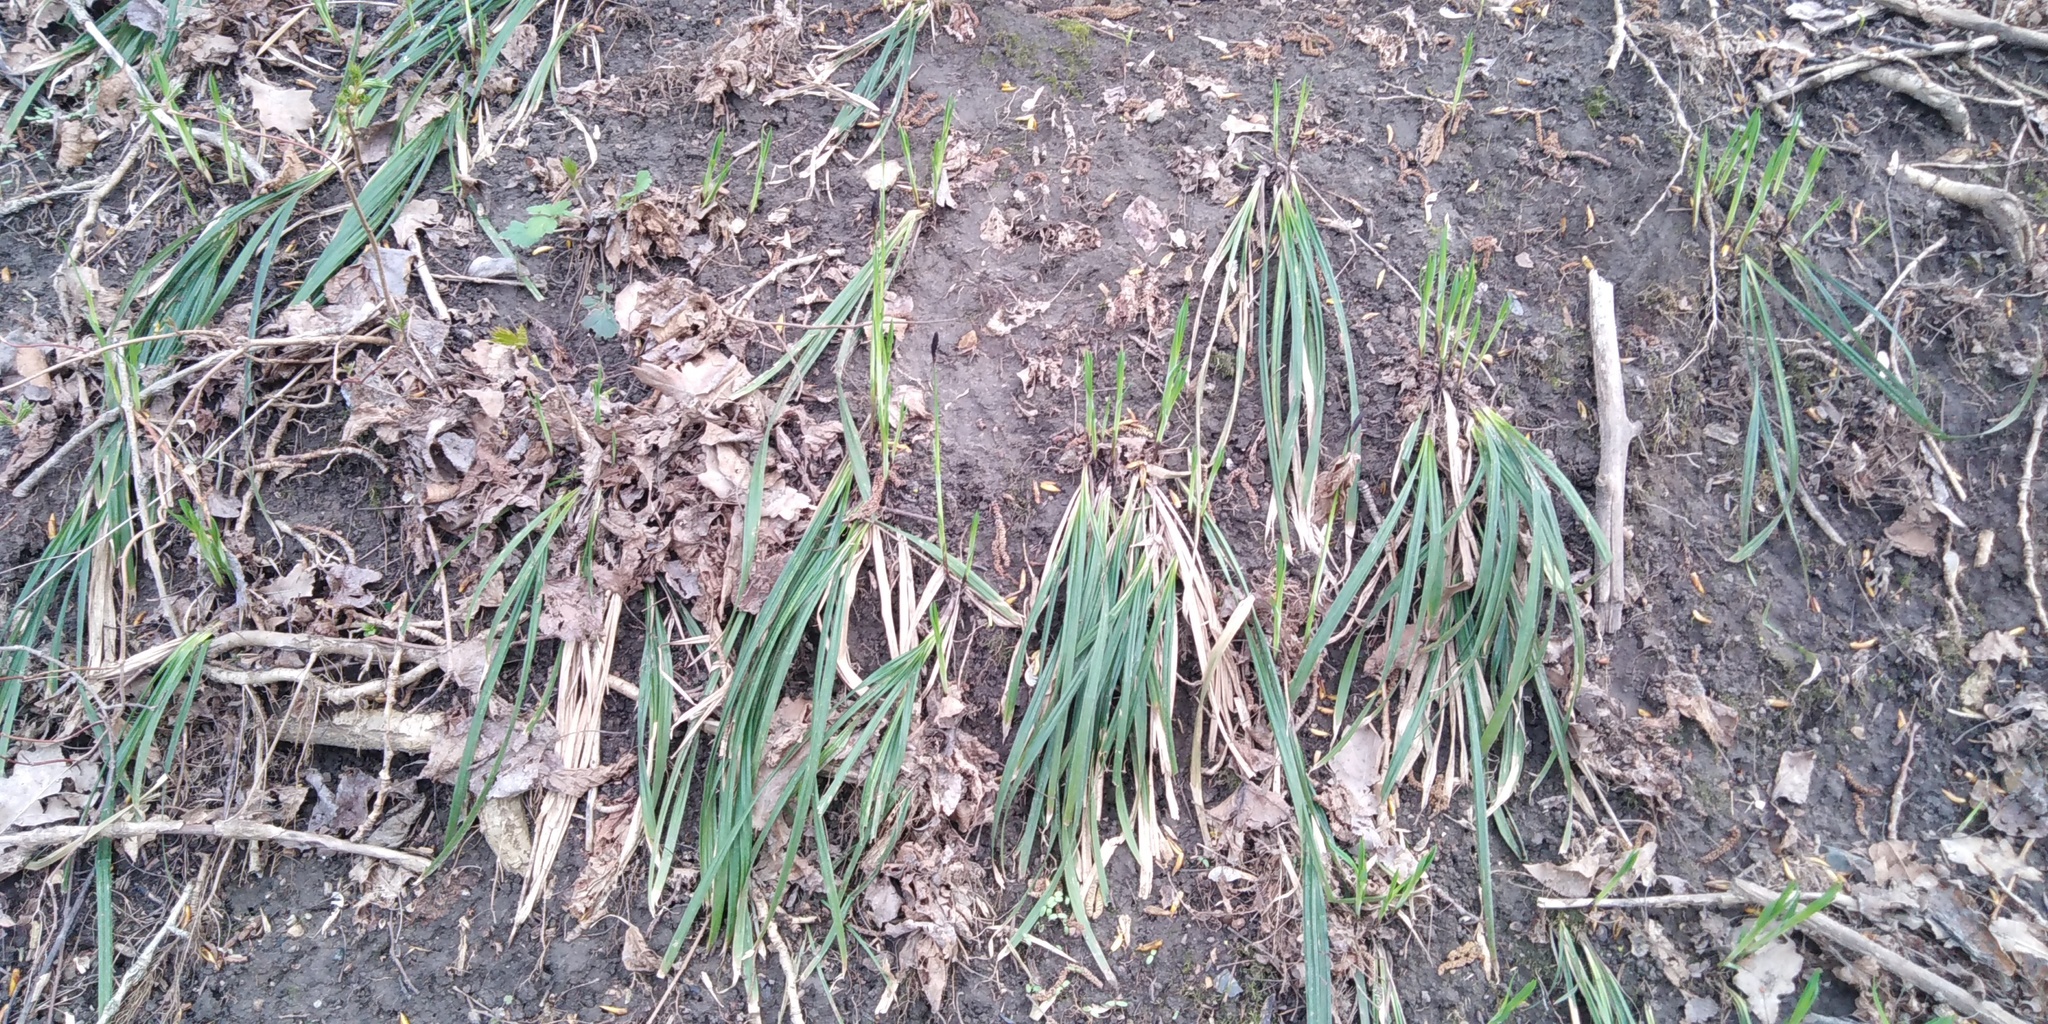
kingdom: Plantae
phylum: Tracheophyta
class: Liliopsida
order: Poales
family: Cyperaceae
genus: Carex
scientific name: Carex pilosa
